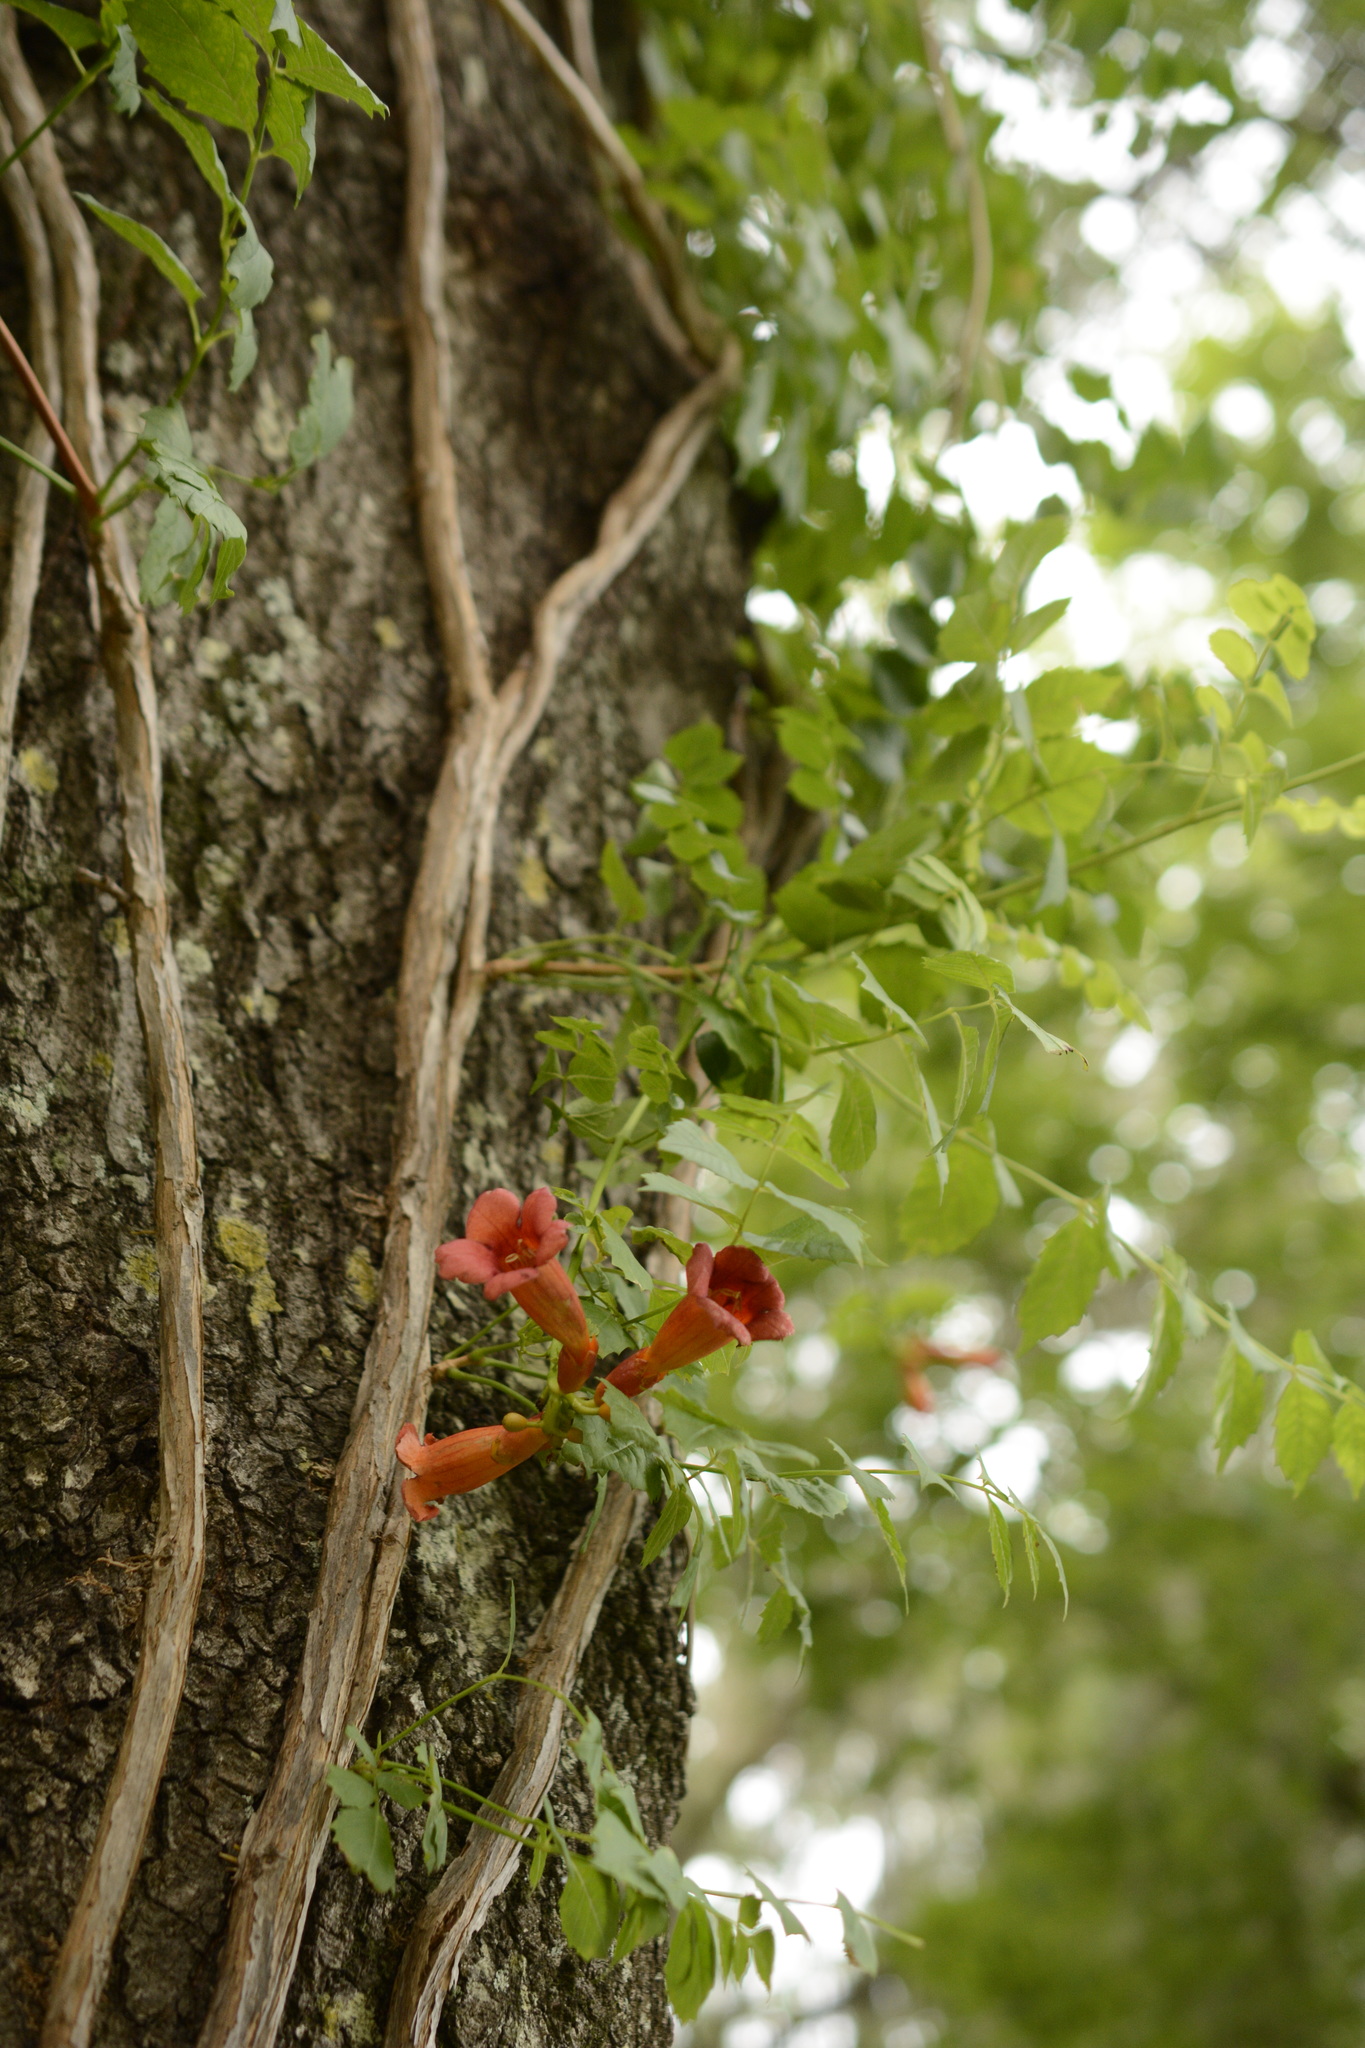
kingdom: Plantae
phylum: Tracheophyta
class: Magnoliopsida
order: Lamiales
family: Bignoniaceae
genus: Campsis
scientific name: Campsis radicans
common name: Trumpet-creeper
